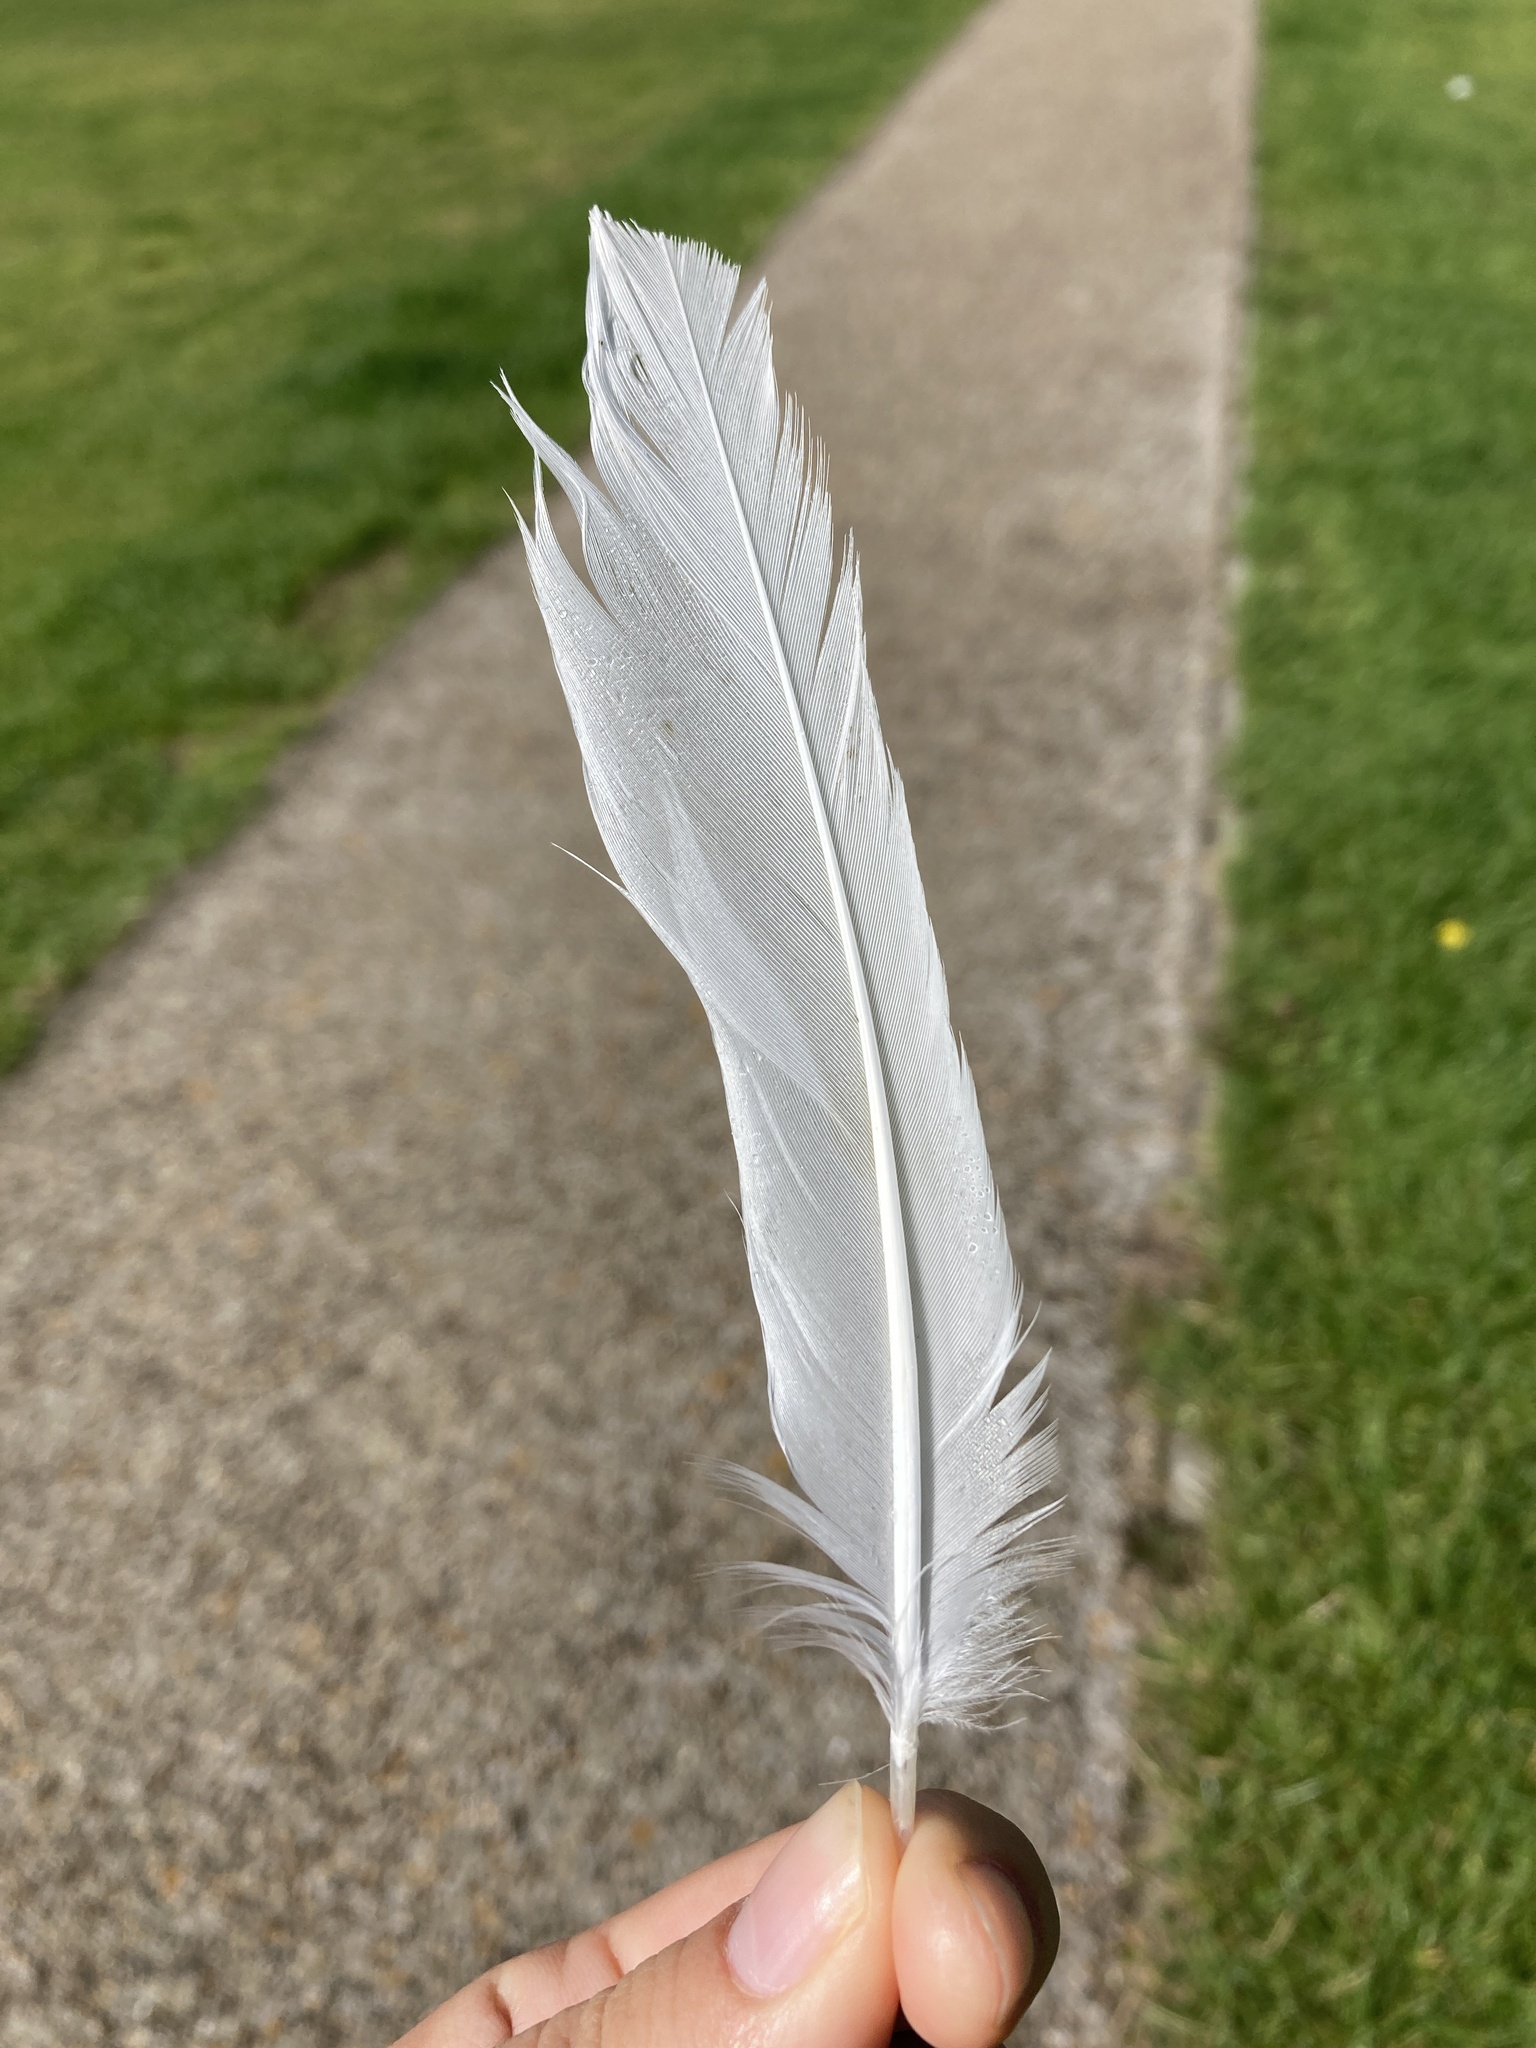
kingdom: Animalia
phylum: Chordata
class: Aves
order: Charadriiformes
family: Laridae
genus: Chroicocephalus
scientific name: Chroicocephalus ridibundus
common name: Black-headed gull
